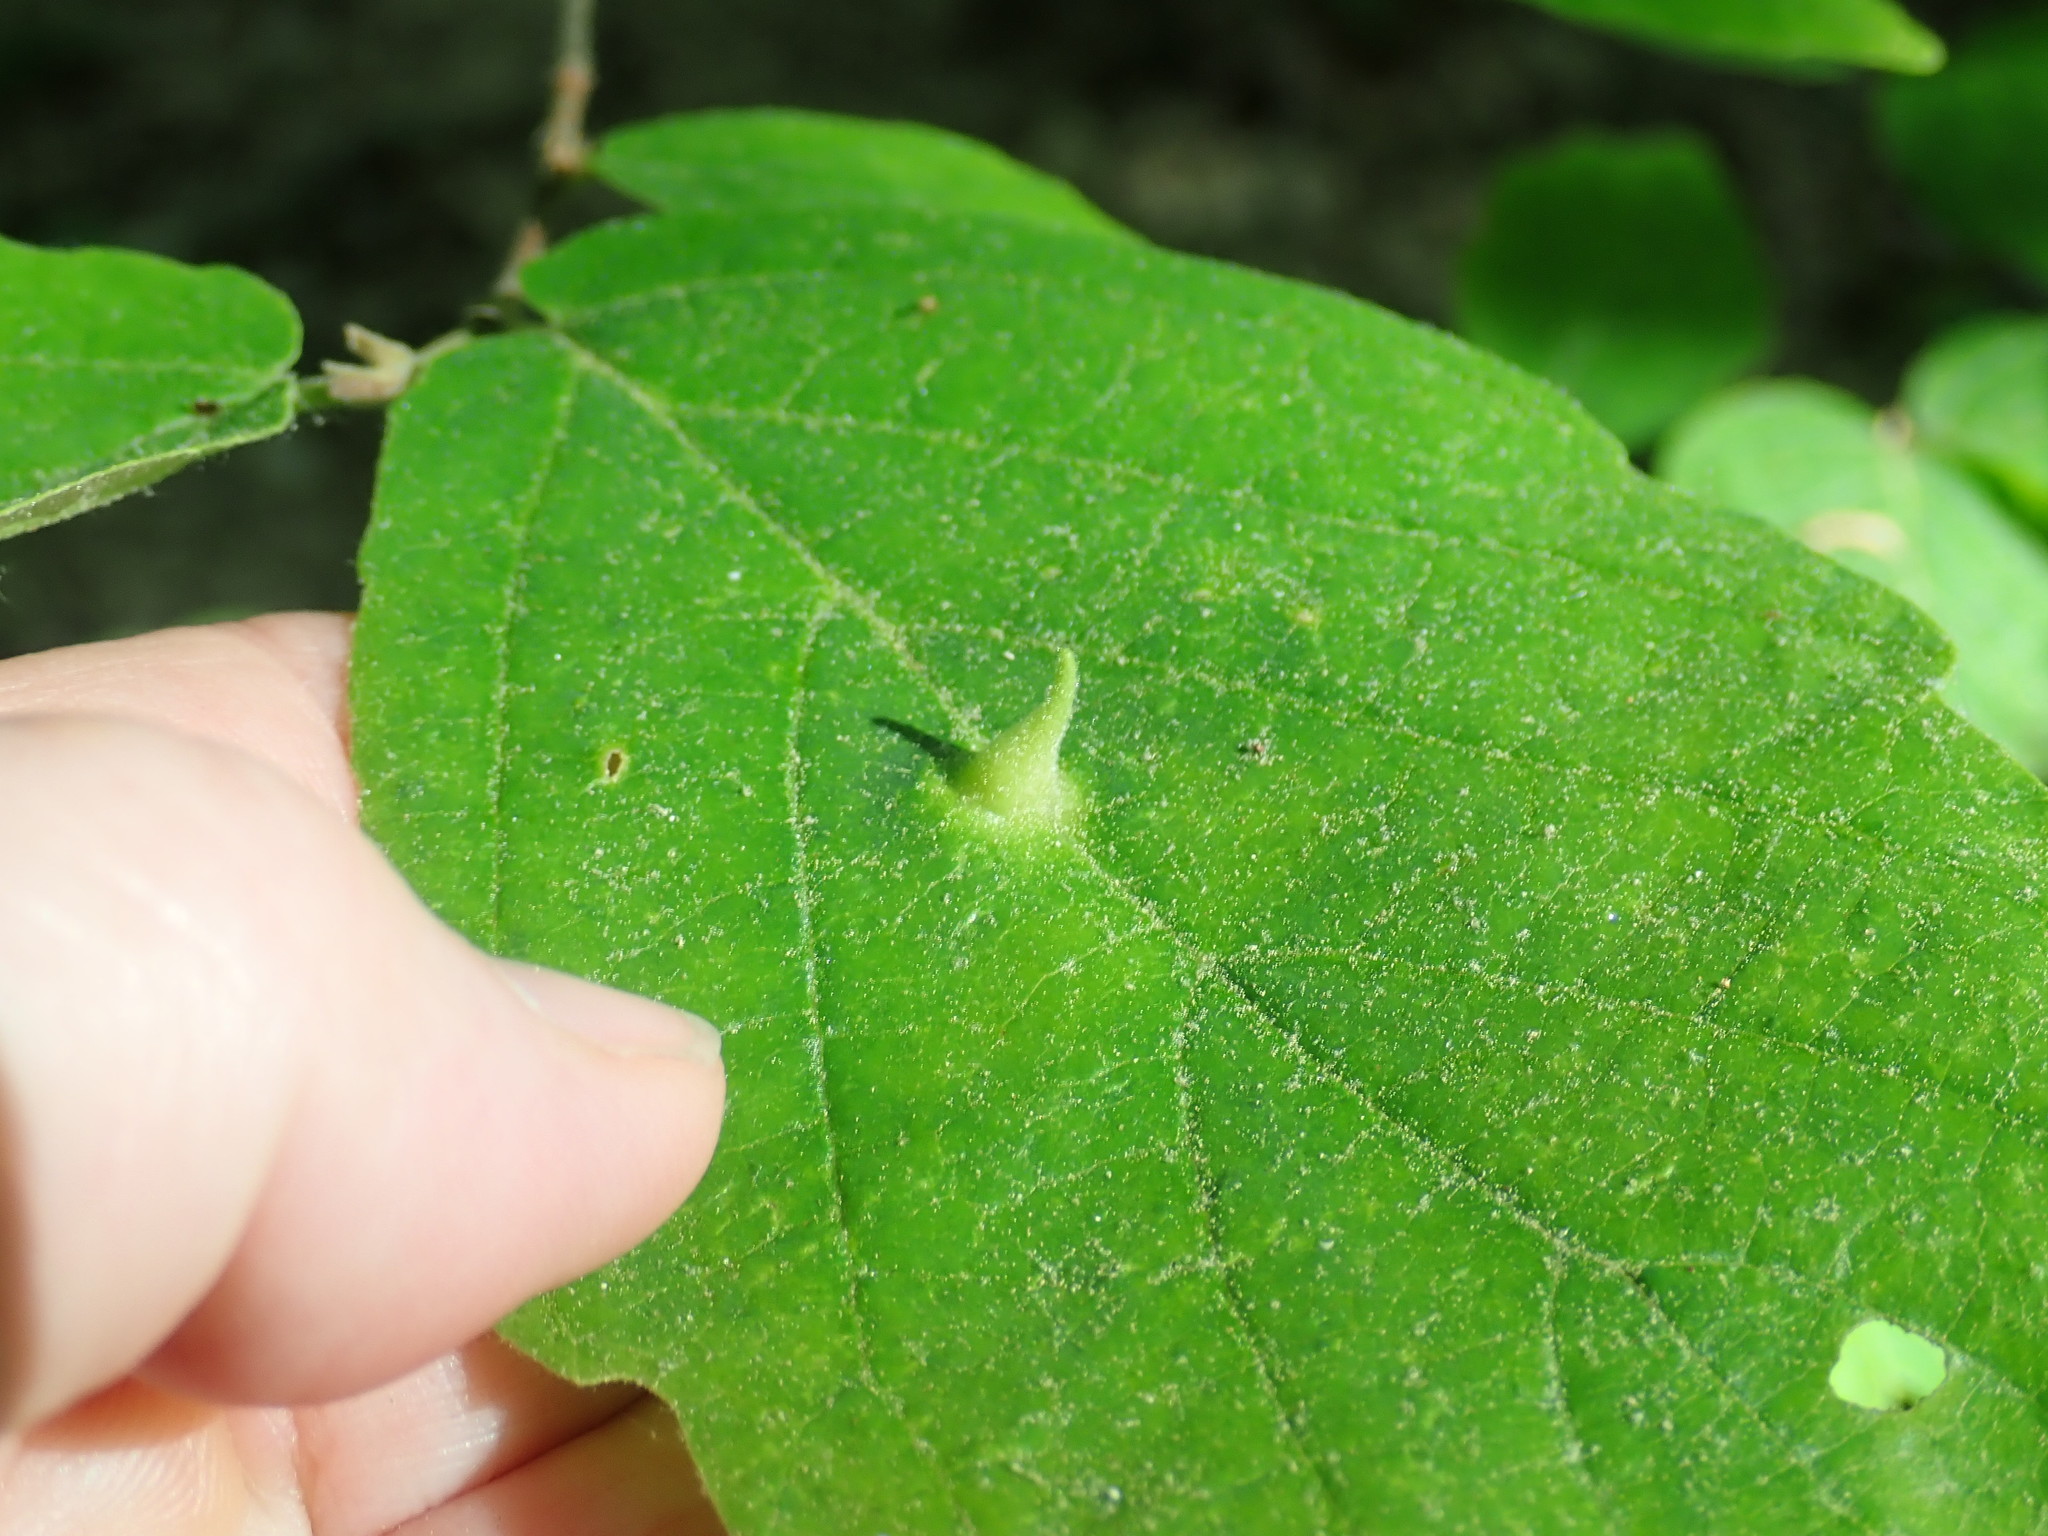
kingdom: Animalia
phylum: Arthropoda
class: Insecta
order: Hemiptera
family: Aphididae
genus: Hormaphis
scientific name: Hormaphis hamamelidis
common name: Witch-hazel cone gall aphid
